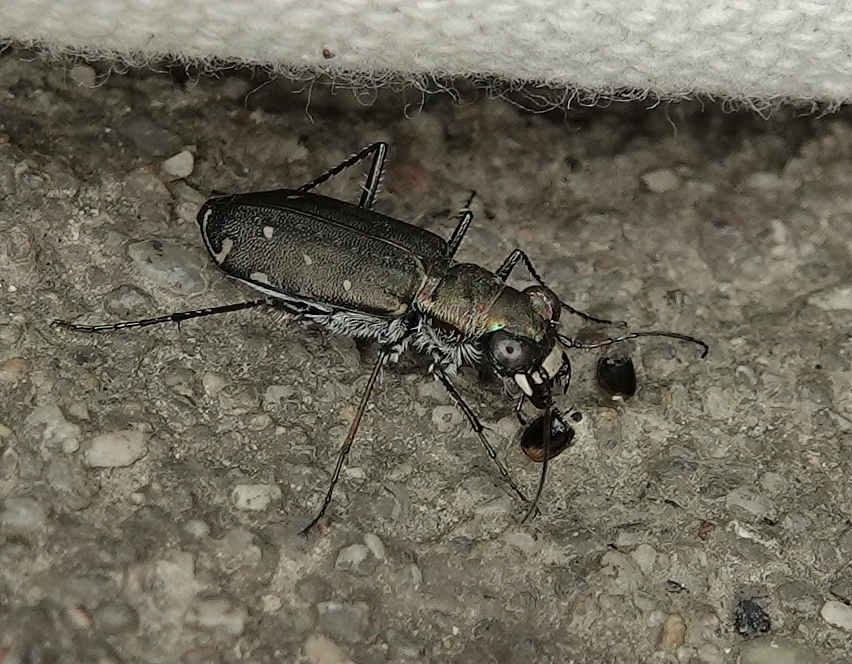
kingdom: Animalia
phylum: Arthropoda
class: Insecta
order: Coleoptera
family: Carabidae
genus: Cicindela
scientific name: Cicindela punctulata
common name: Punctured tiger beetle
